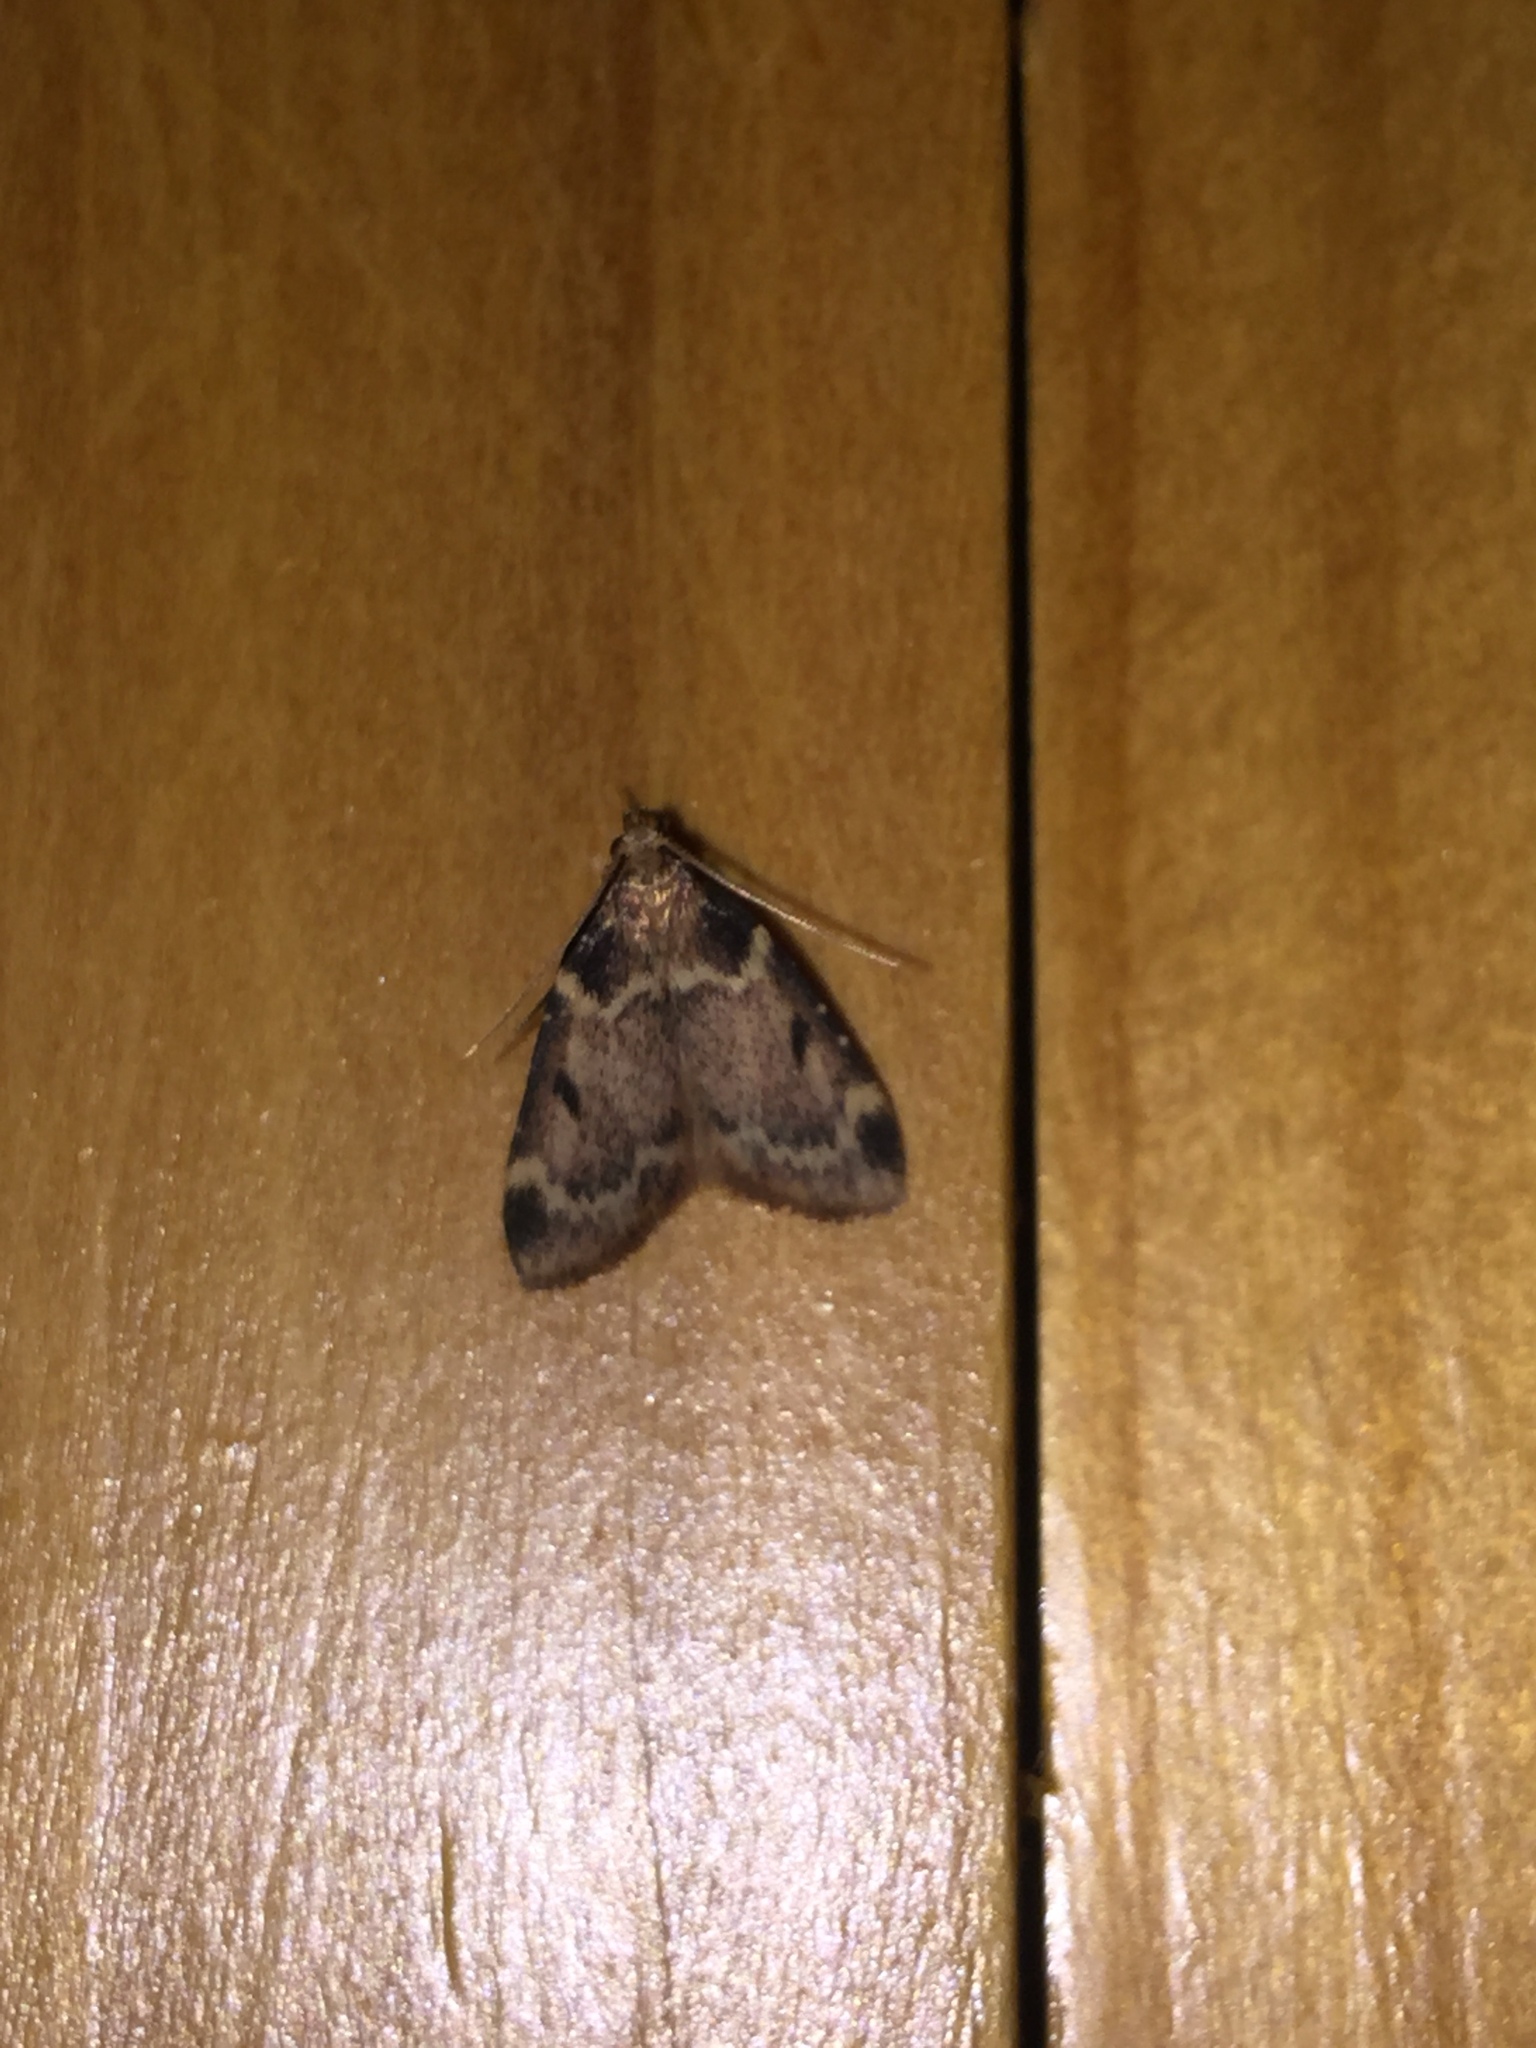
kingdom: Animalia
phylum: Arthropoda
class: Insecta
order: Lepidoptera
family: Pyralidae
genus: Aglossa
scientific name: Aglossa costiferalis
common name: Calico pyralid moth
